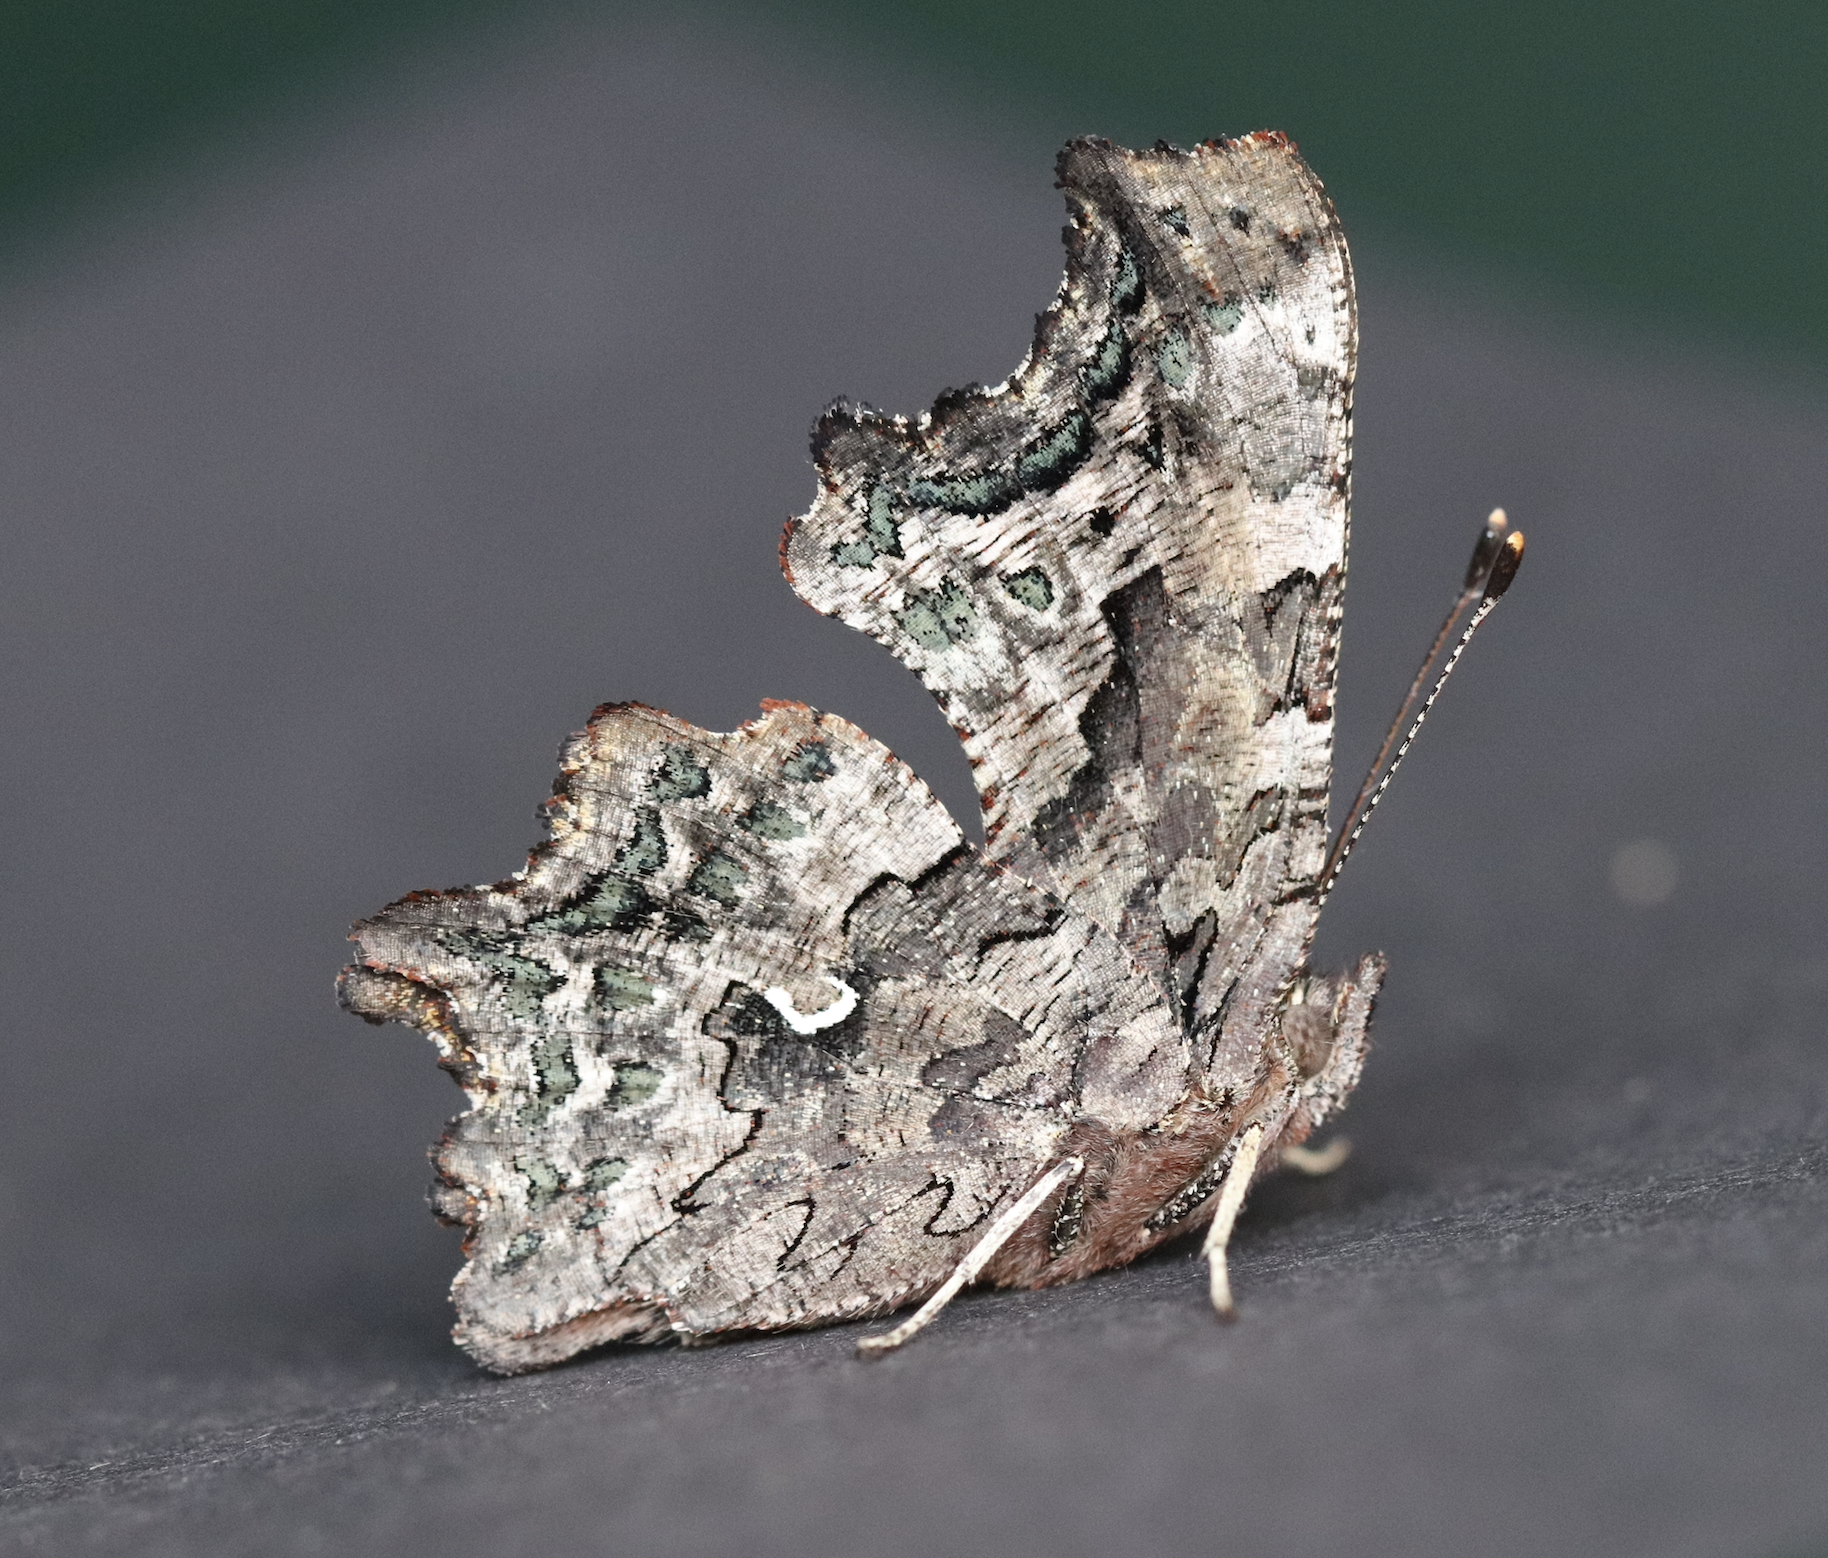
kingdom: Animalia
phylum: Arthropoda
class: Insecta
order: Lepidoptera
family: Nymphalidae
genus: Polygonia
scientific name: Polygonia faunus
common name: Green comma
